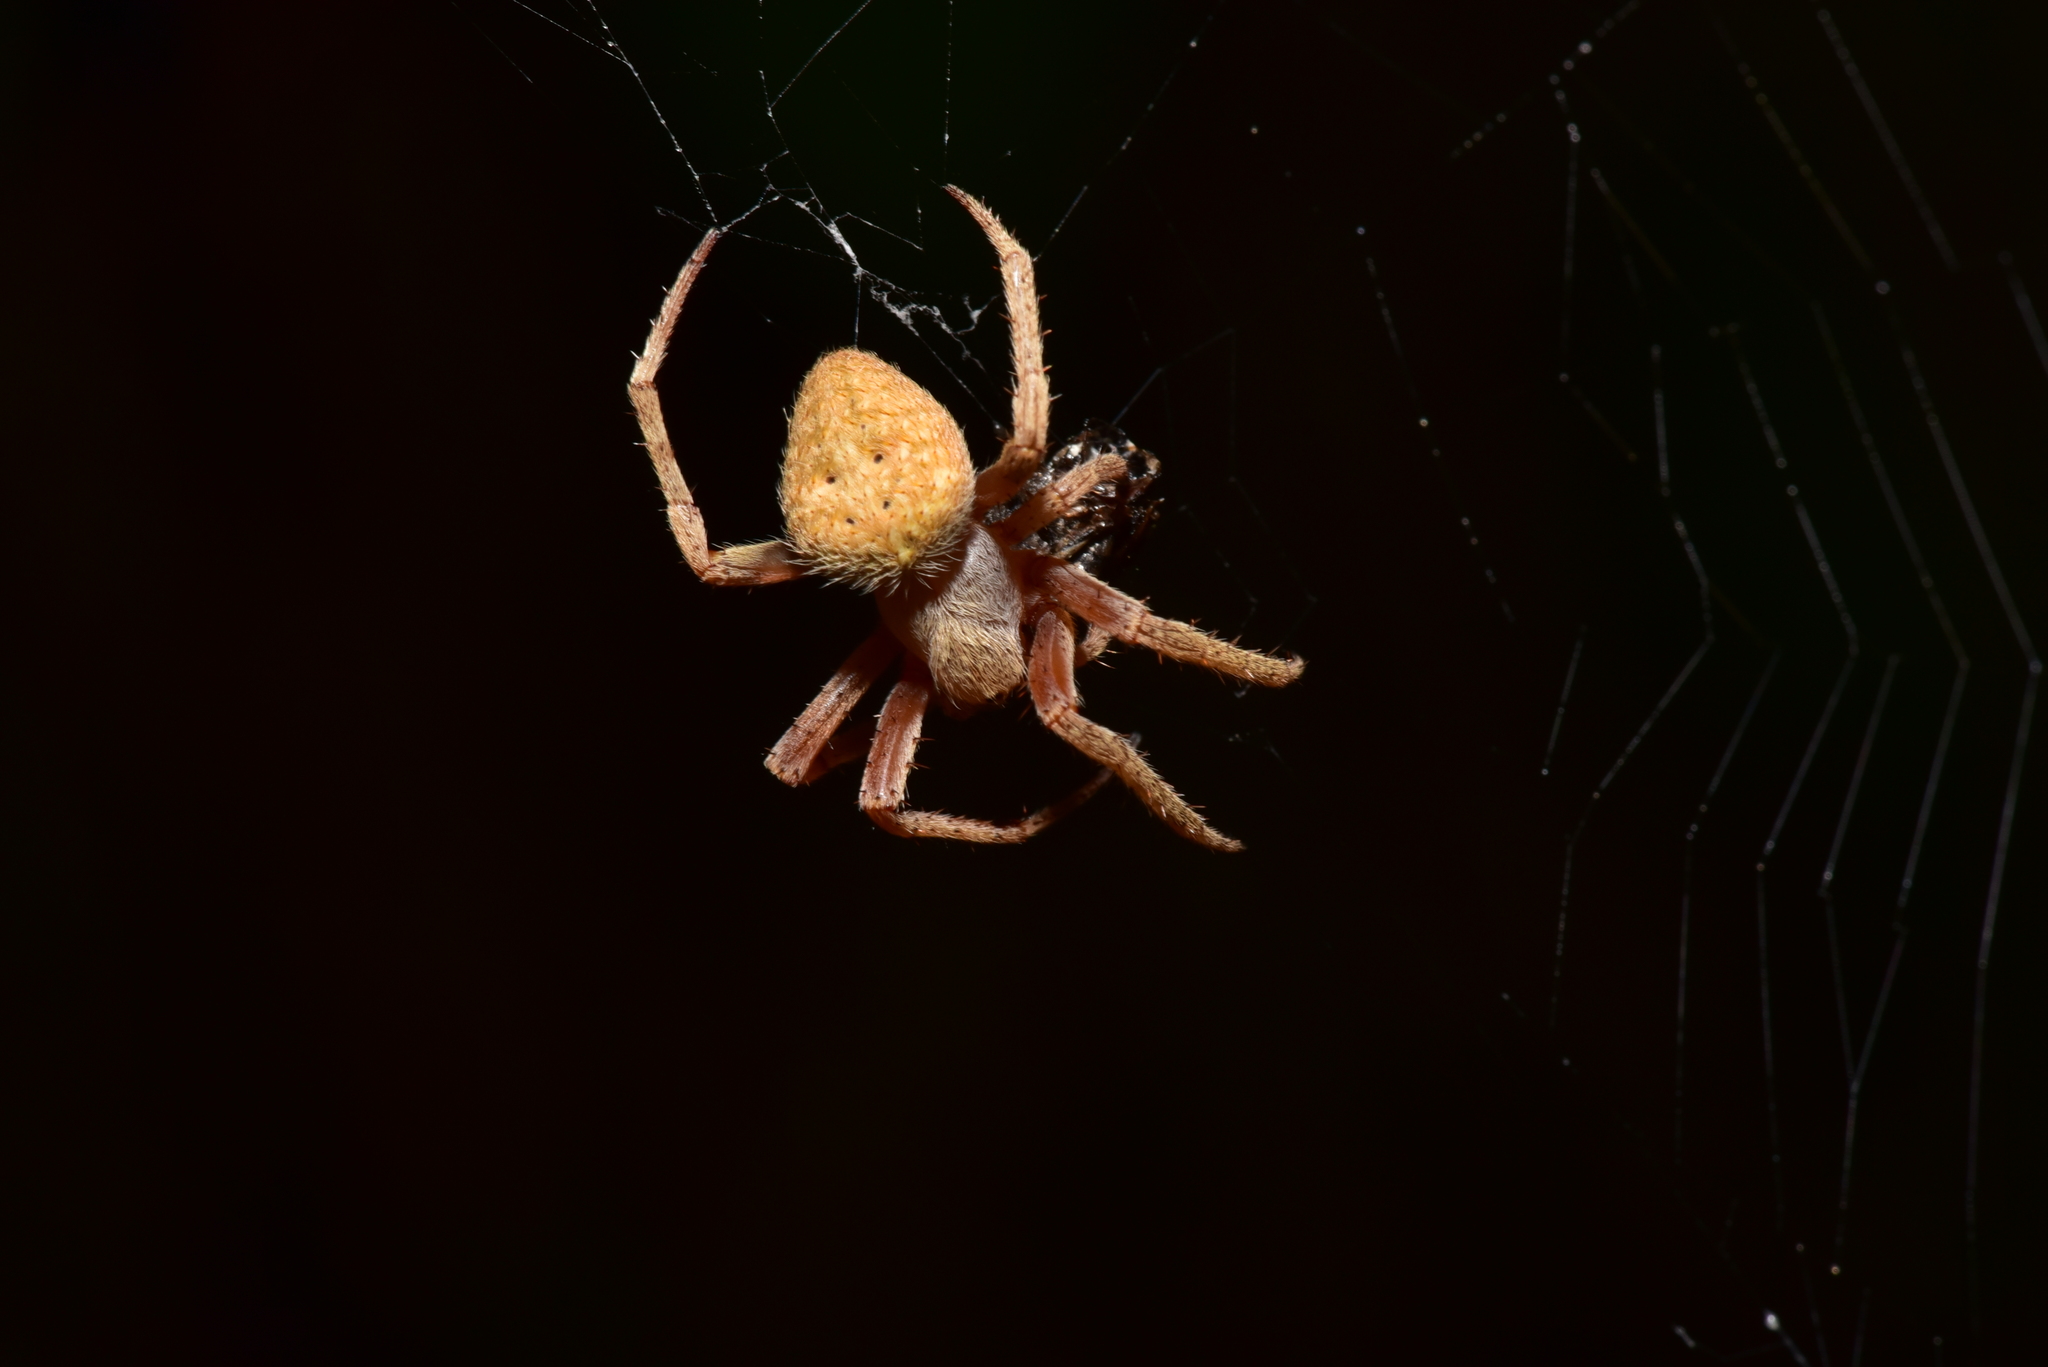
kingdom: Animalia
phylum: Arthropoda
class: Arachnida
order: Araneae
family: Araneidae
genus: Neoscona
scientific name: Neoscona punctigera
